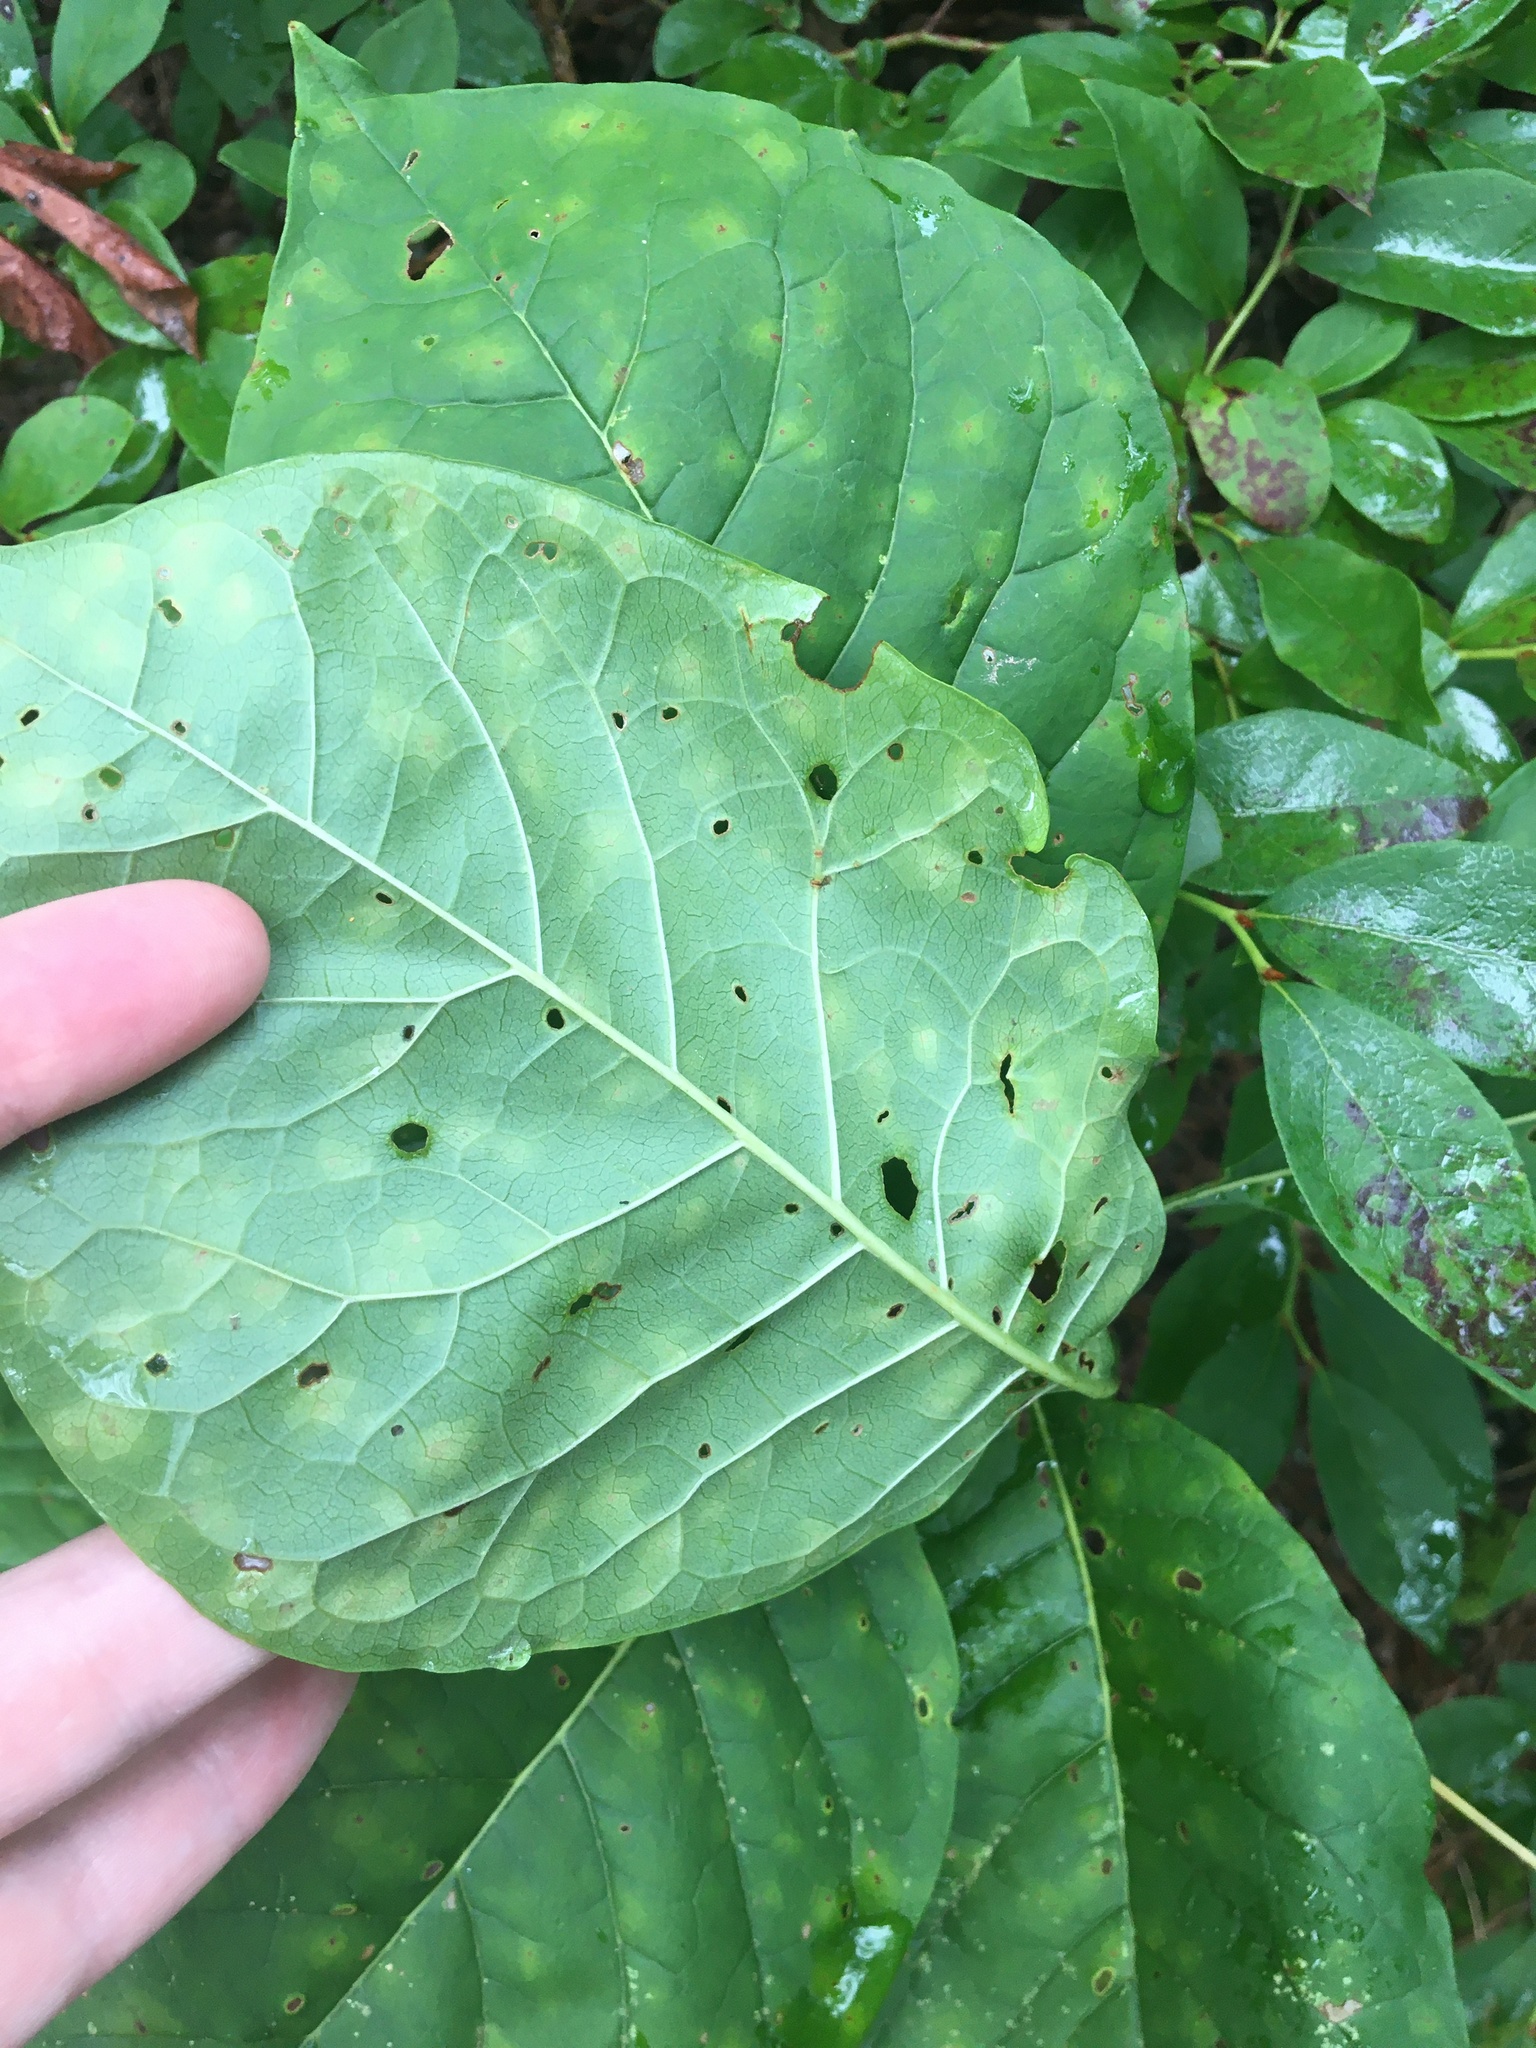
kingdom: Plantae
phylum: Tracheophyta
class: Magnoliopsida
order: Lamiales
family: Oleaceae
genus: Chionanthus
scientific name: Chionanthus virginicus
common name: American fringetree
